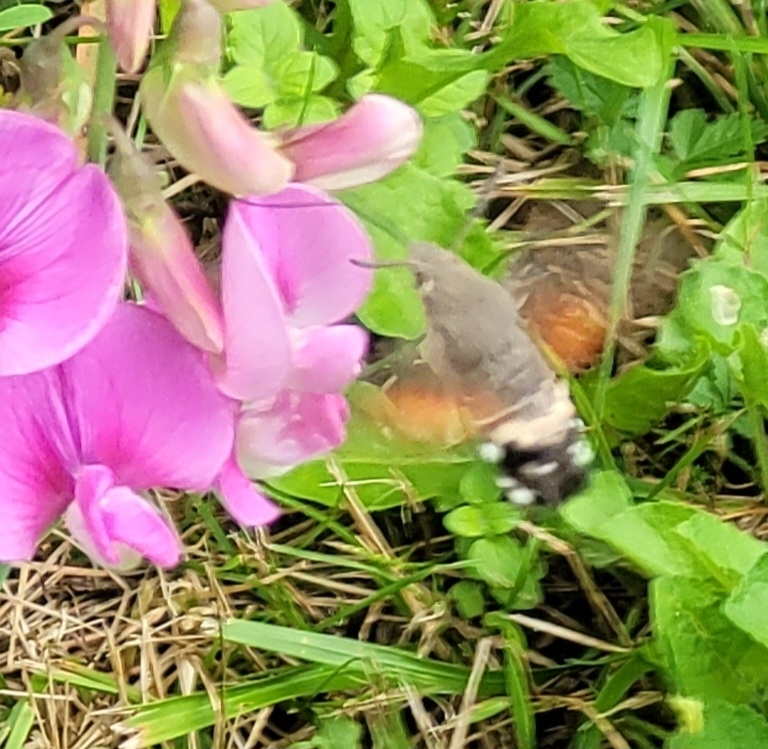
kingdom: Animalia
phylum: Arthropoda
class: Insecta
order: Lepidoptera
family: Sphingidae
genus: Macroglossum
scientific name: Macroglossum stellatarum
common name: Humming-bird hawk-moth
